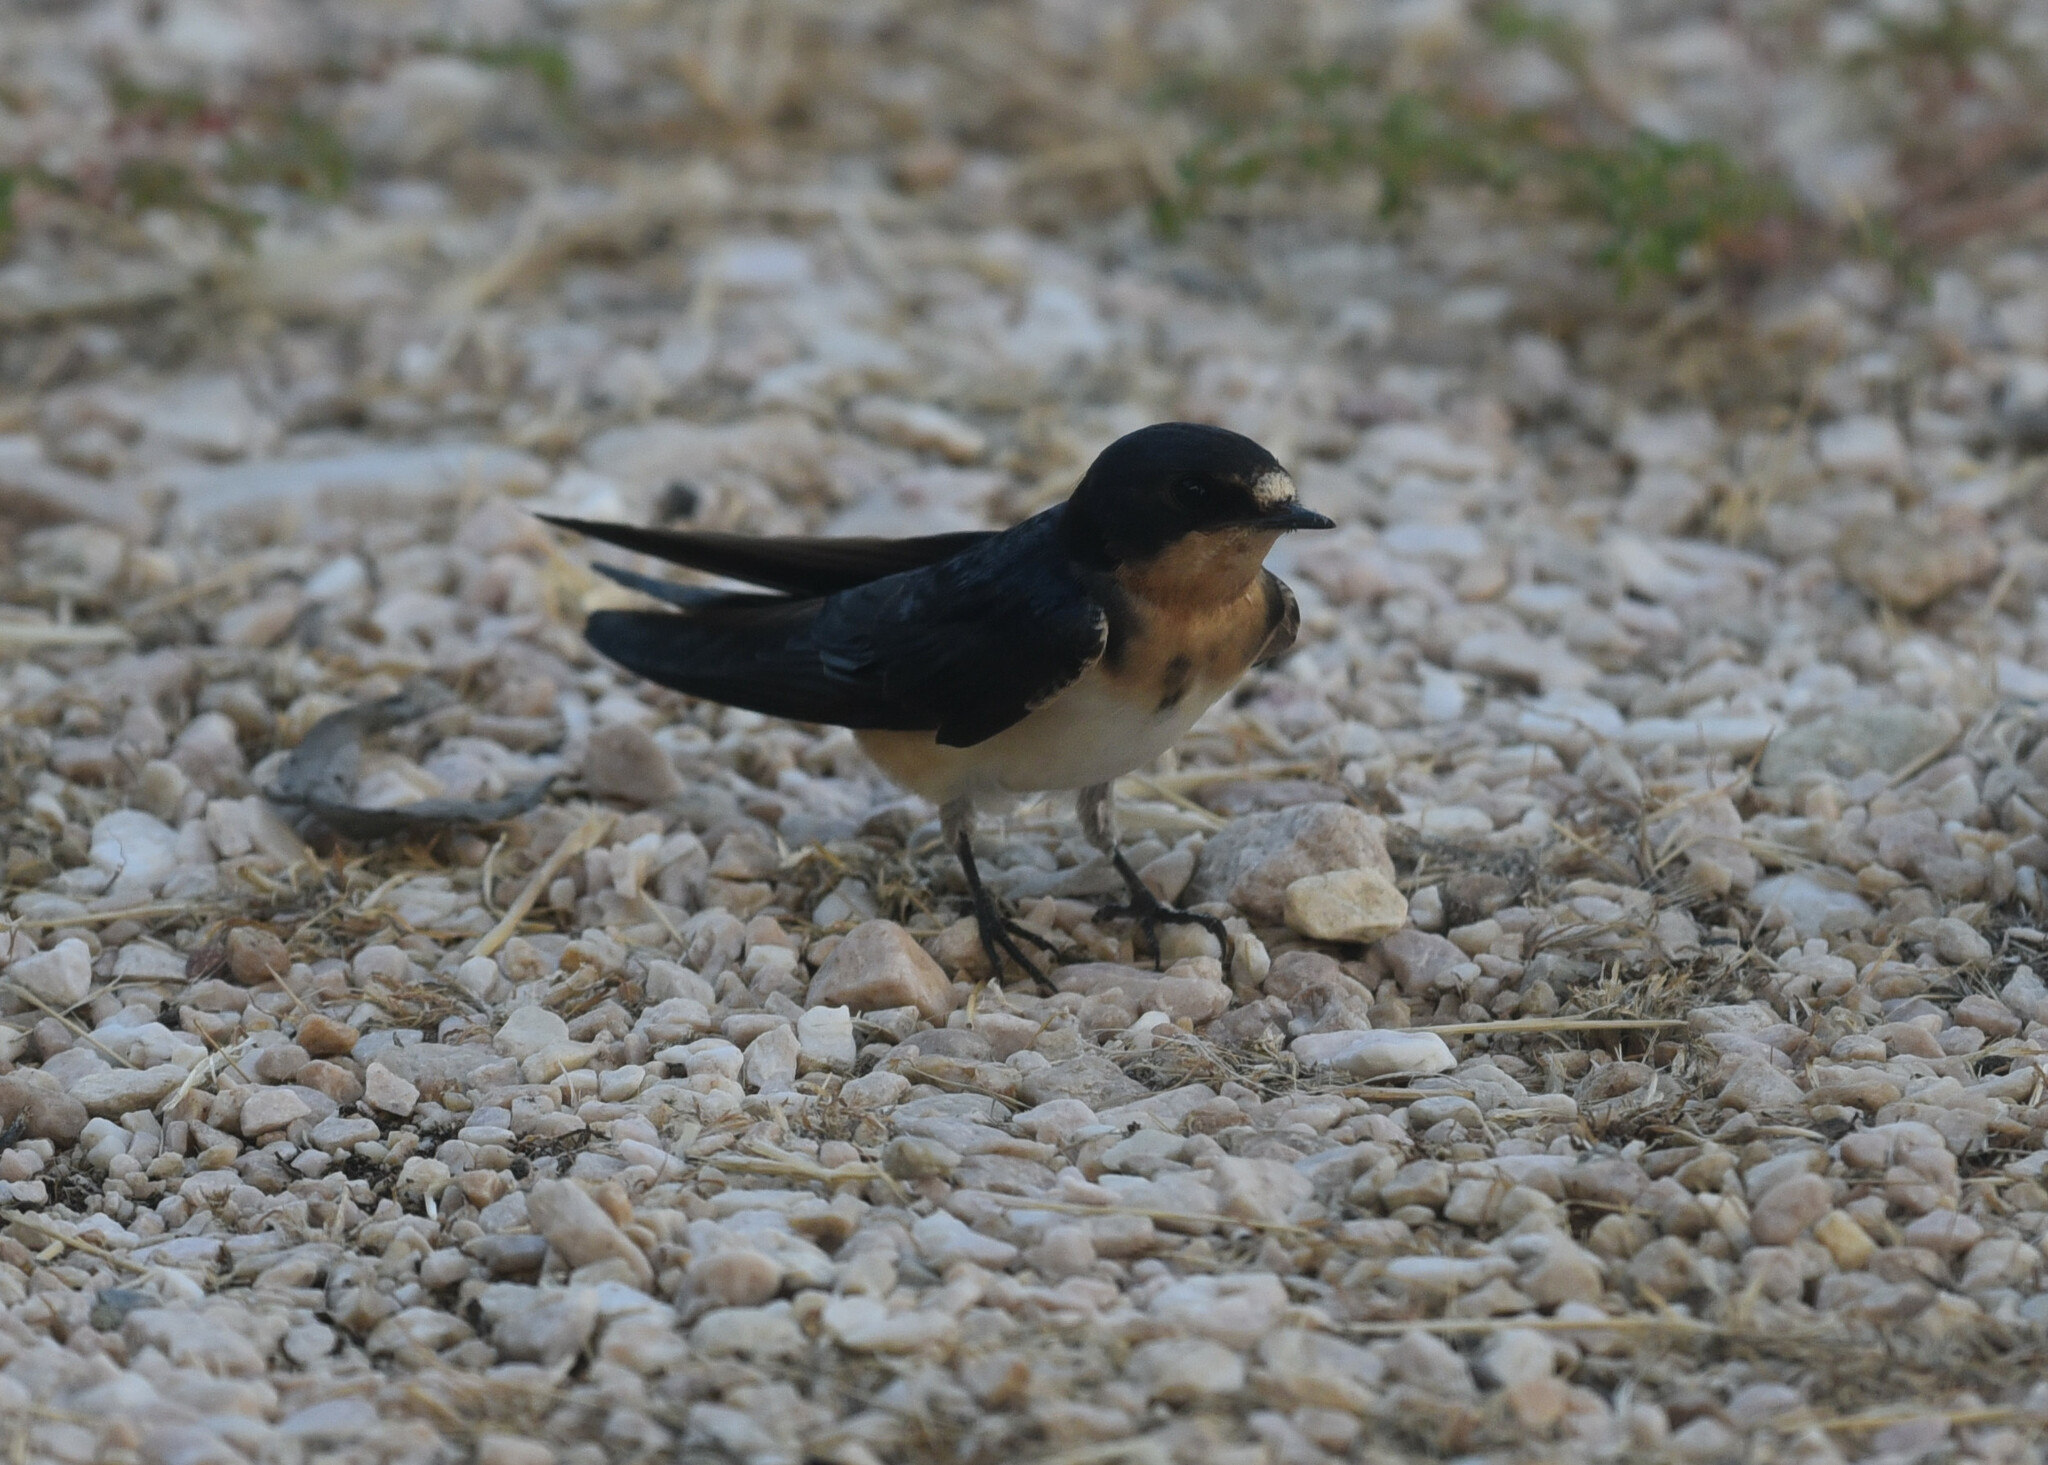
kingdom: Animalia
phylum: Chordata
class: Aves
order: Passeriformes
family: Hirundinidae
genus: Hirundo
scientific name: Hirundo rustica
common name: Barn swallow
